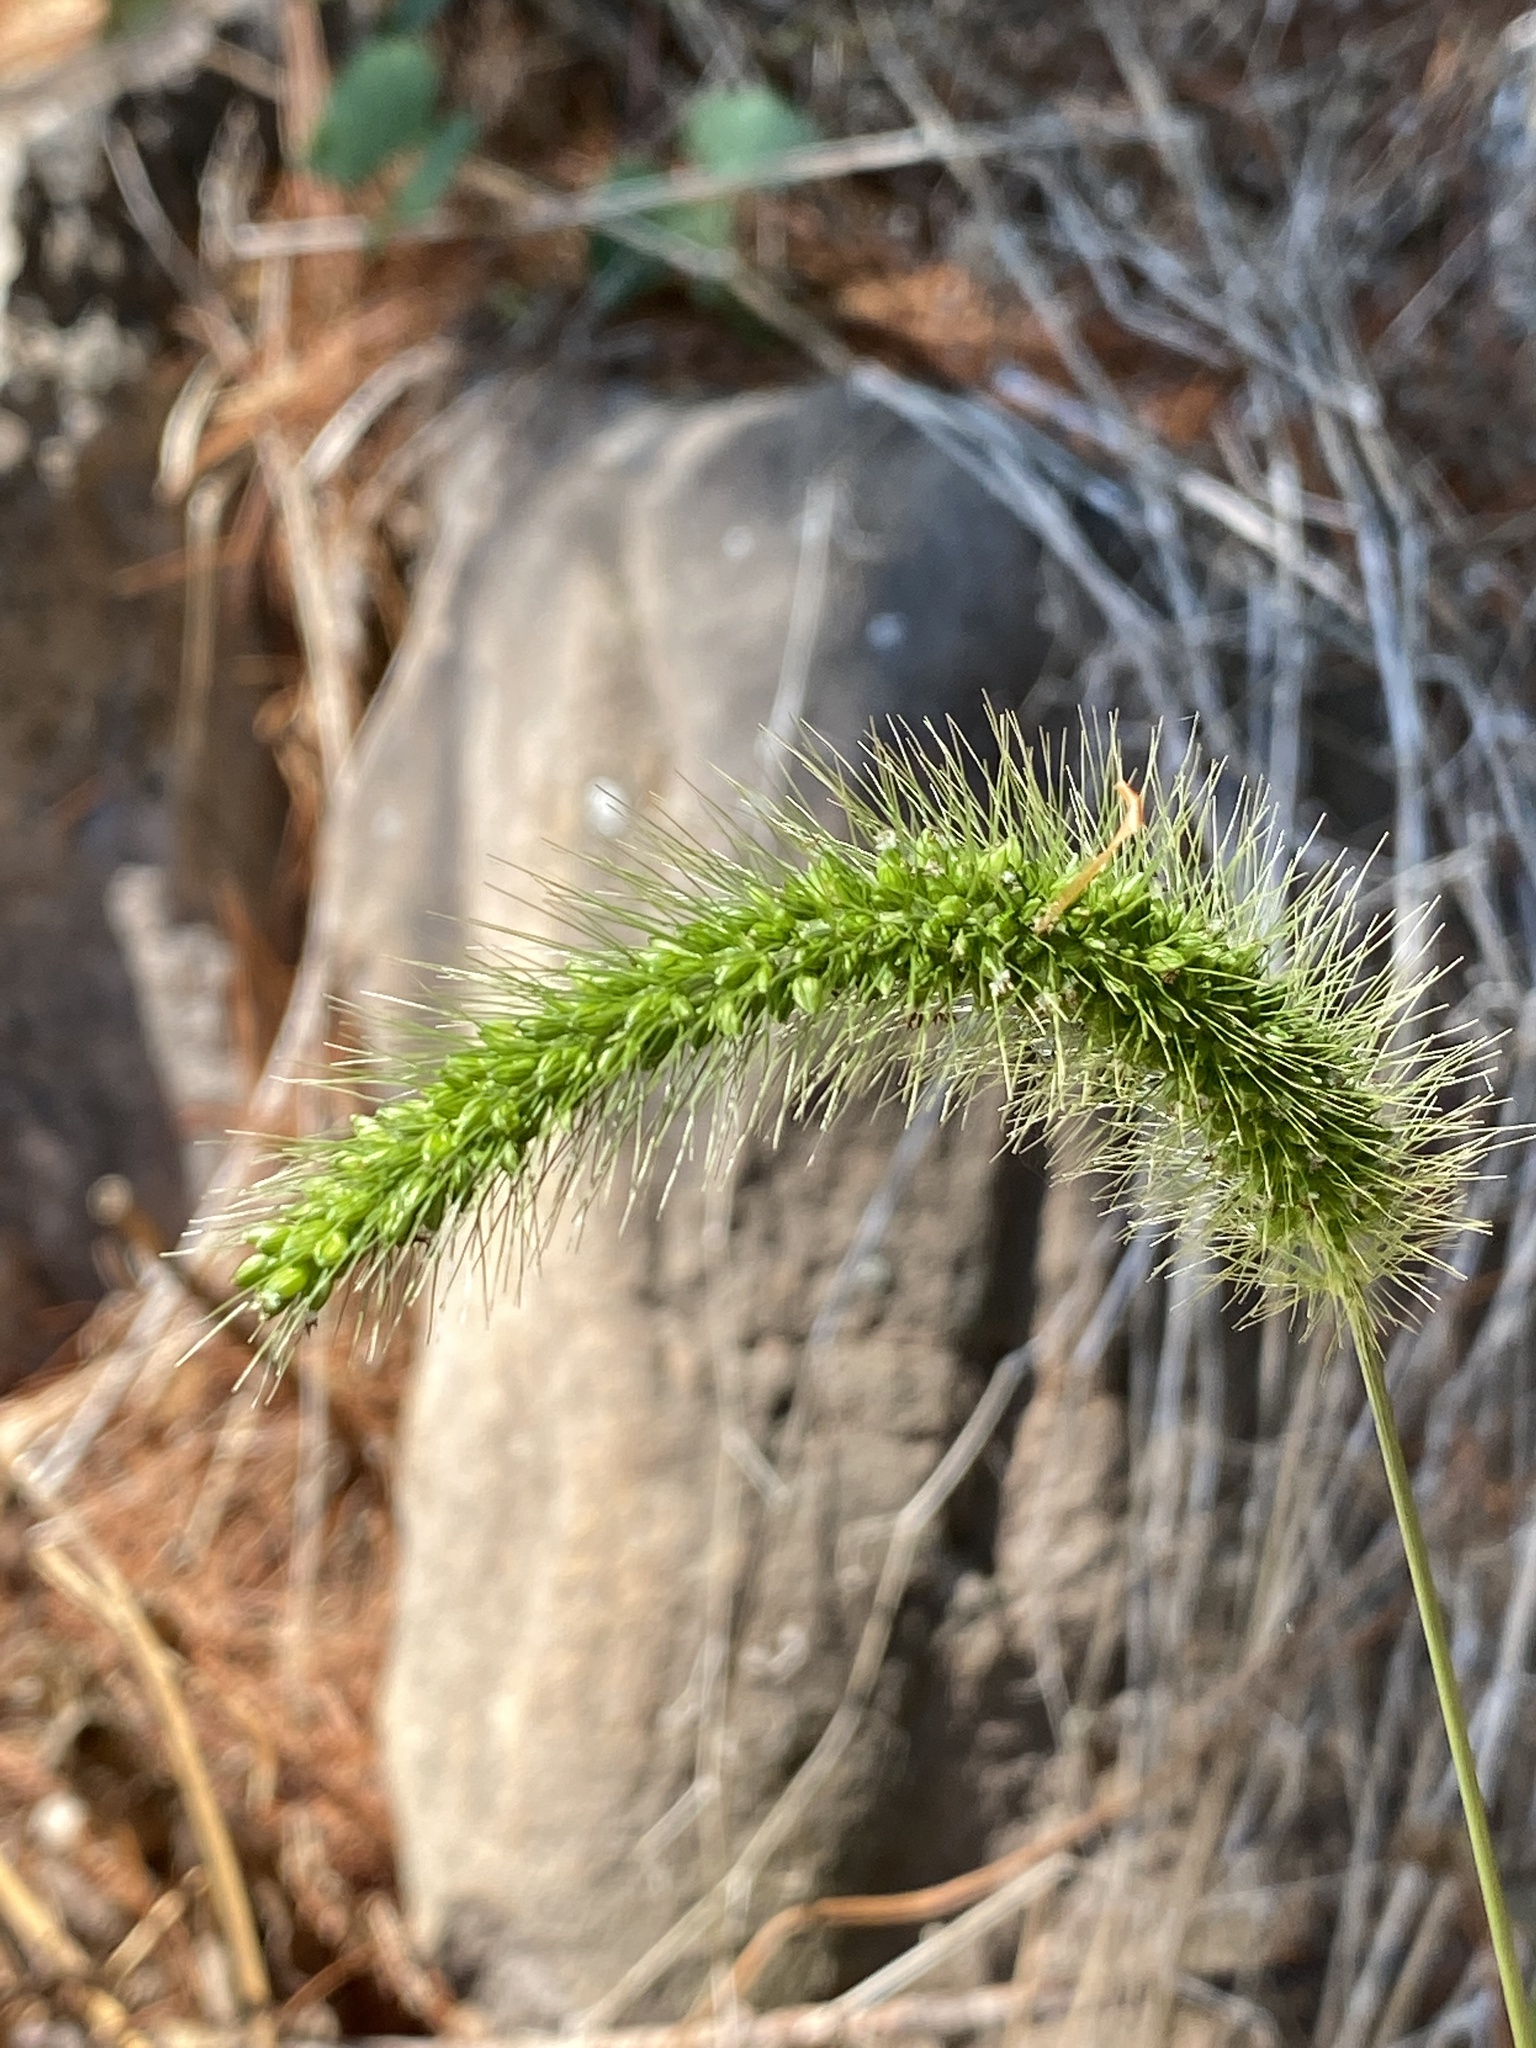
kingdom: Plantae
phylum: Tracheophyta
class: Liliopsida
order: Poales
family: Poaceae
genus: Setaria
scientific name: Setaria faberi
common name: Nodding bristle-grass
